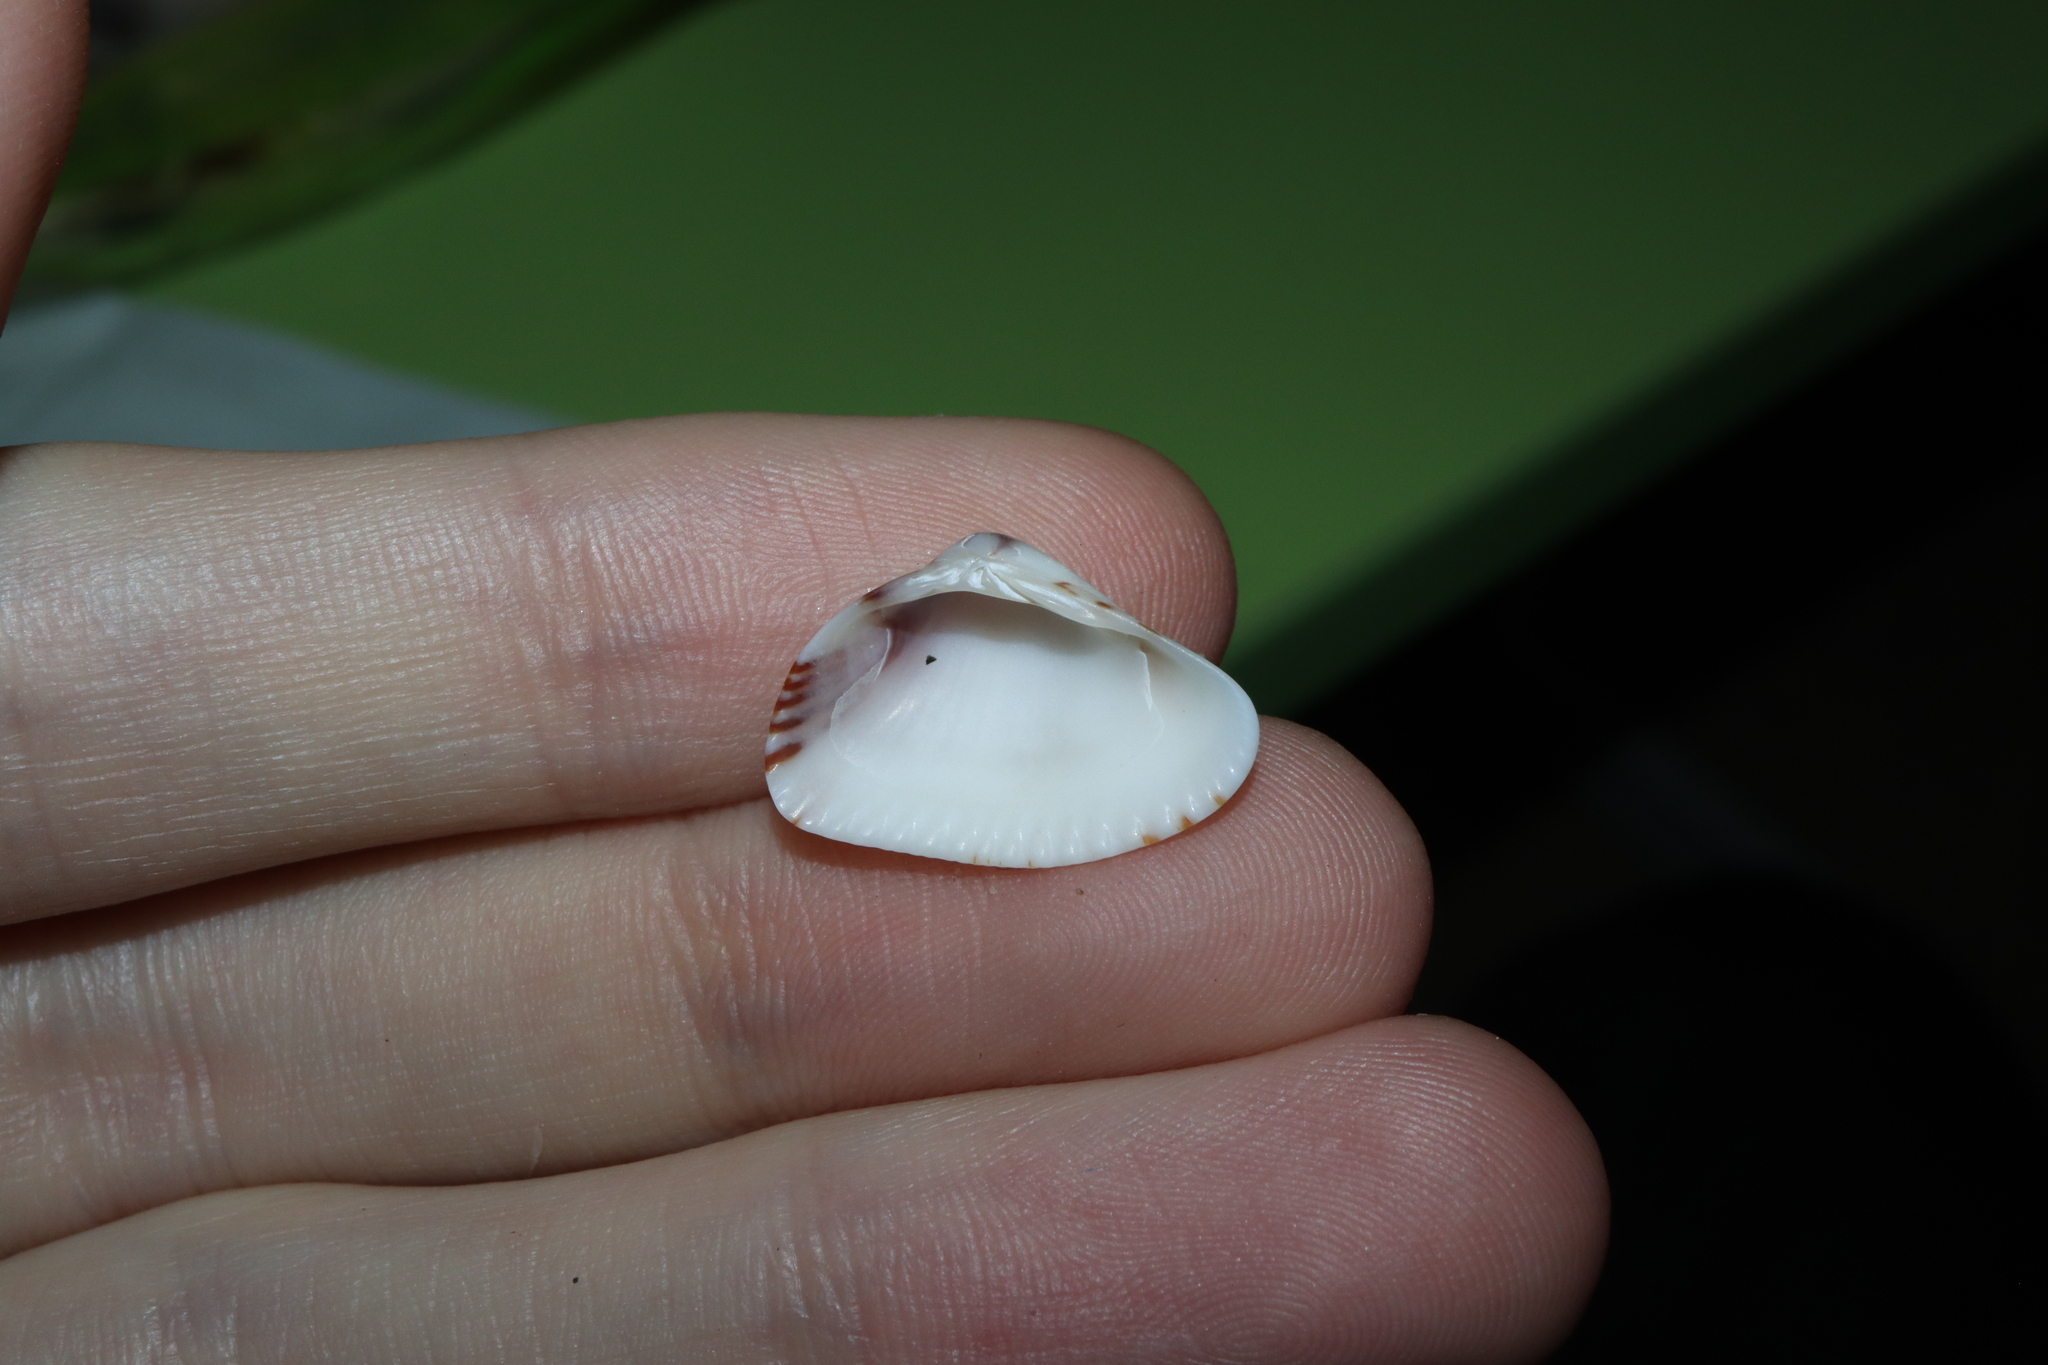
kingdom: Animalia
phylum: Mollusca
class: Bivalvia
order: Venerida
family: Hemidonacidae
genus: Hemidonax
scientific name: Hemidonax pictus
